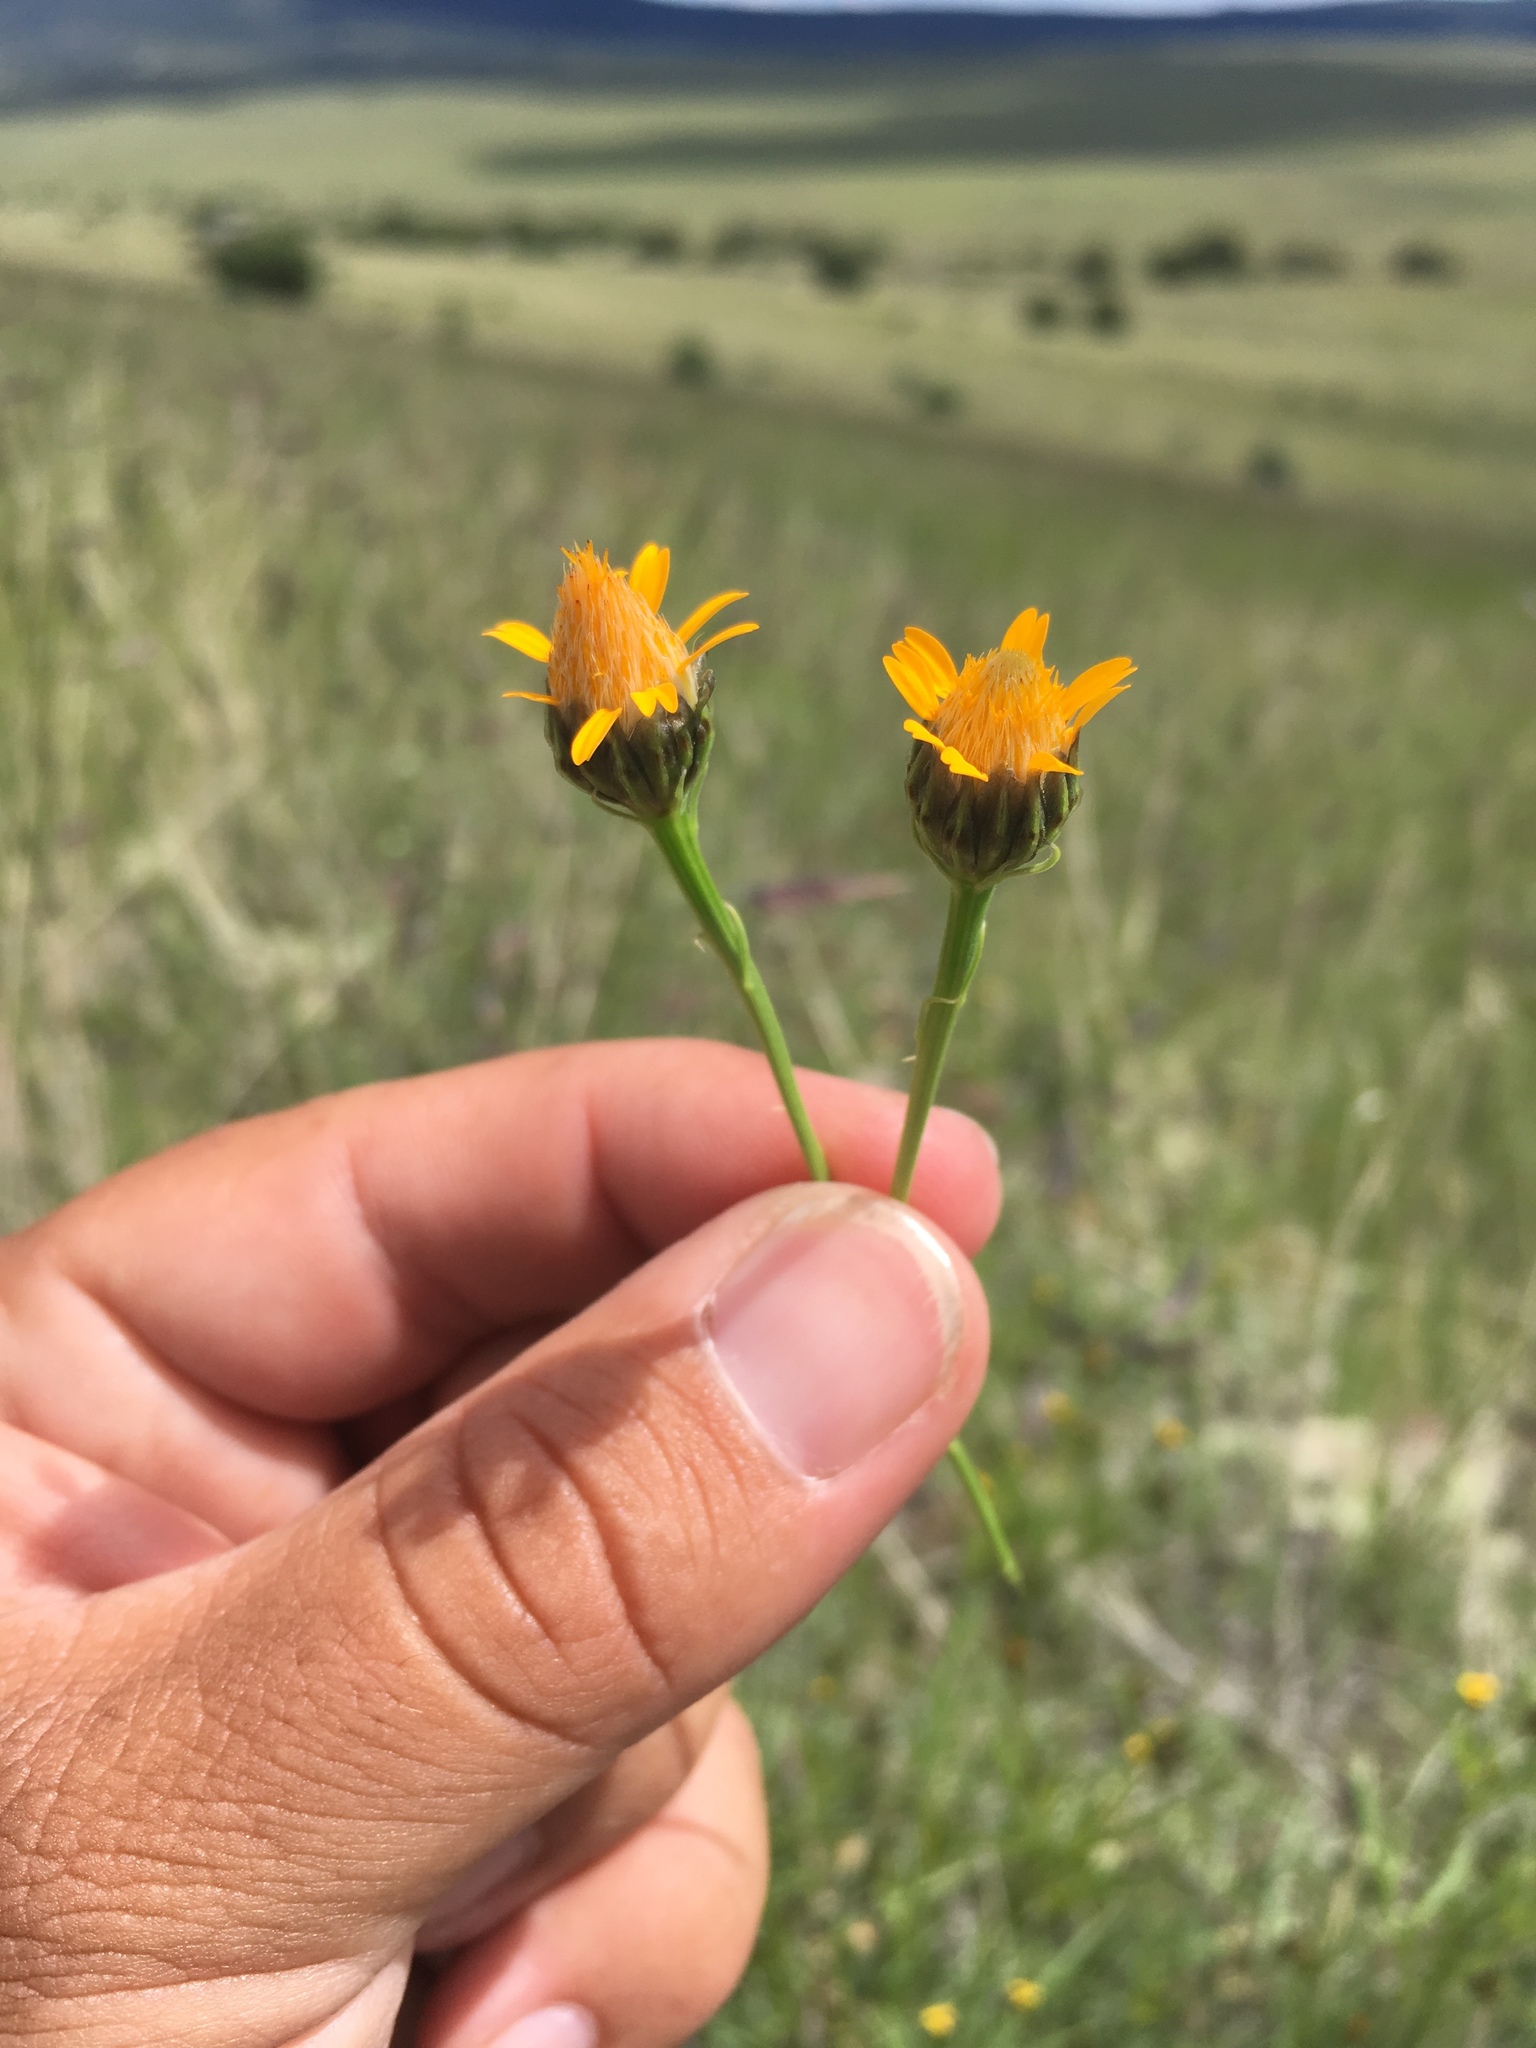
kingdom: Plantae
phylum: Tracheophyta
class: Magnoliopsida
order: Asterales
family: Asteraceae
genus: Adenophyllum
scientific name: Adenophyllum wrightii
